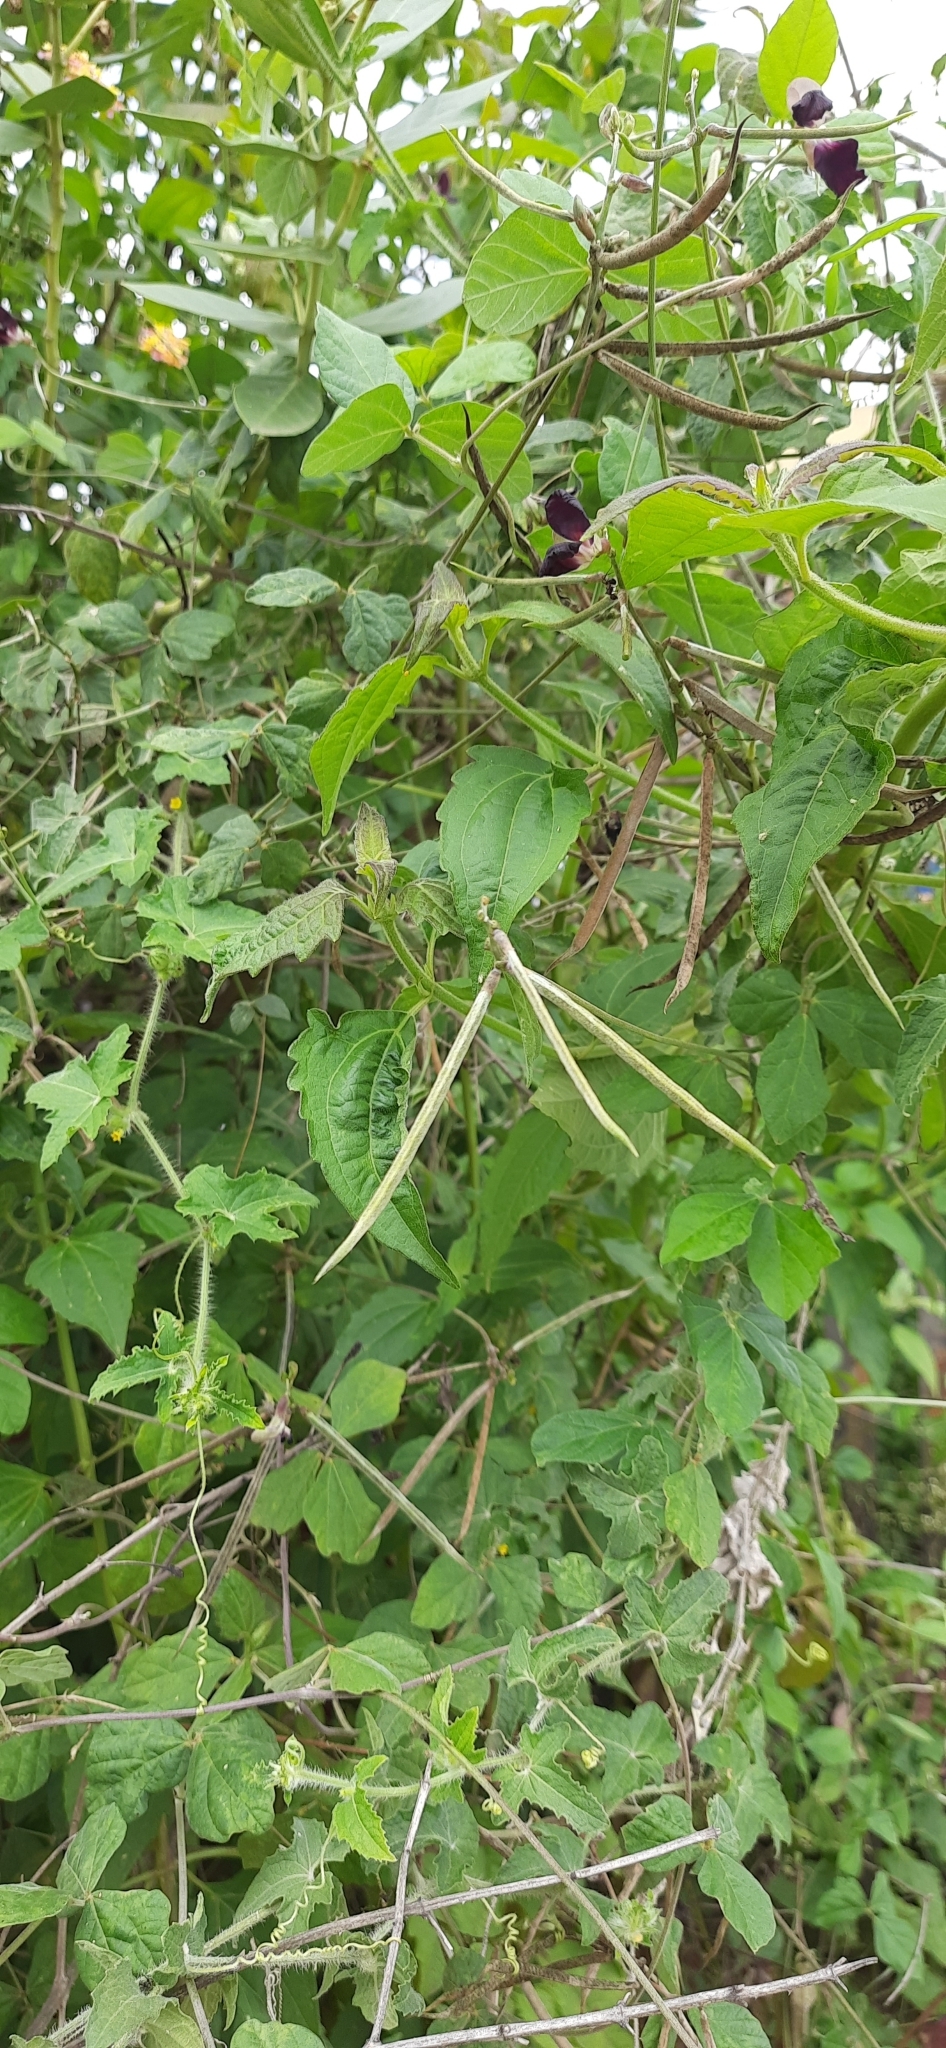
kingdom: Plantae
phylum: Tracheophyta
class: Magnoliopsida
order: Fabales
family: Fabaceae
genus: Macroptilium
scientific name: Macroptilium atropurpureum
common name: Purple bushbean
